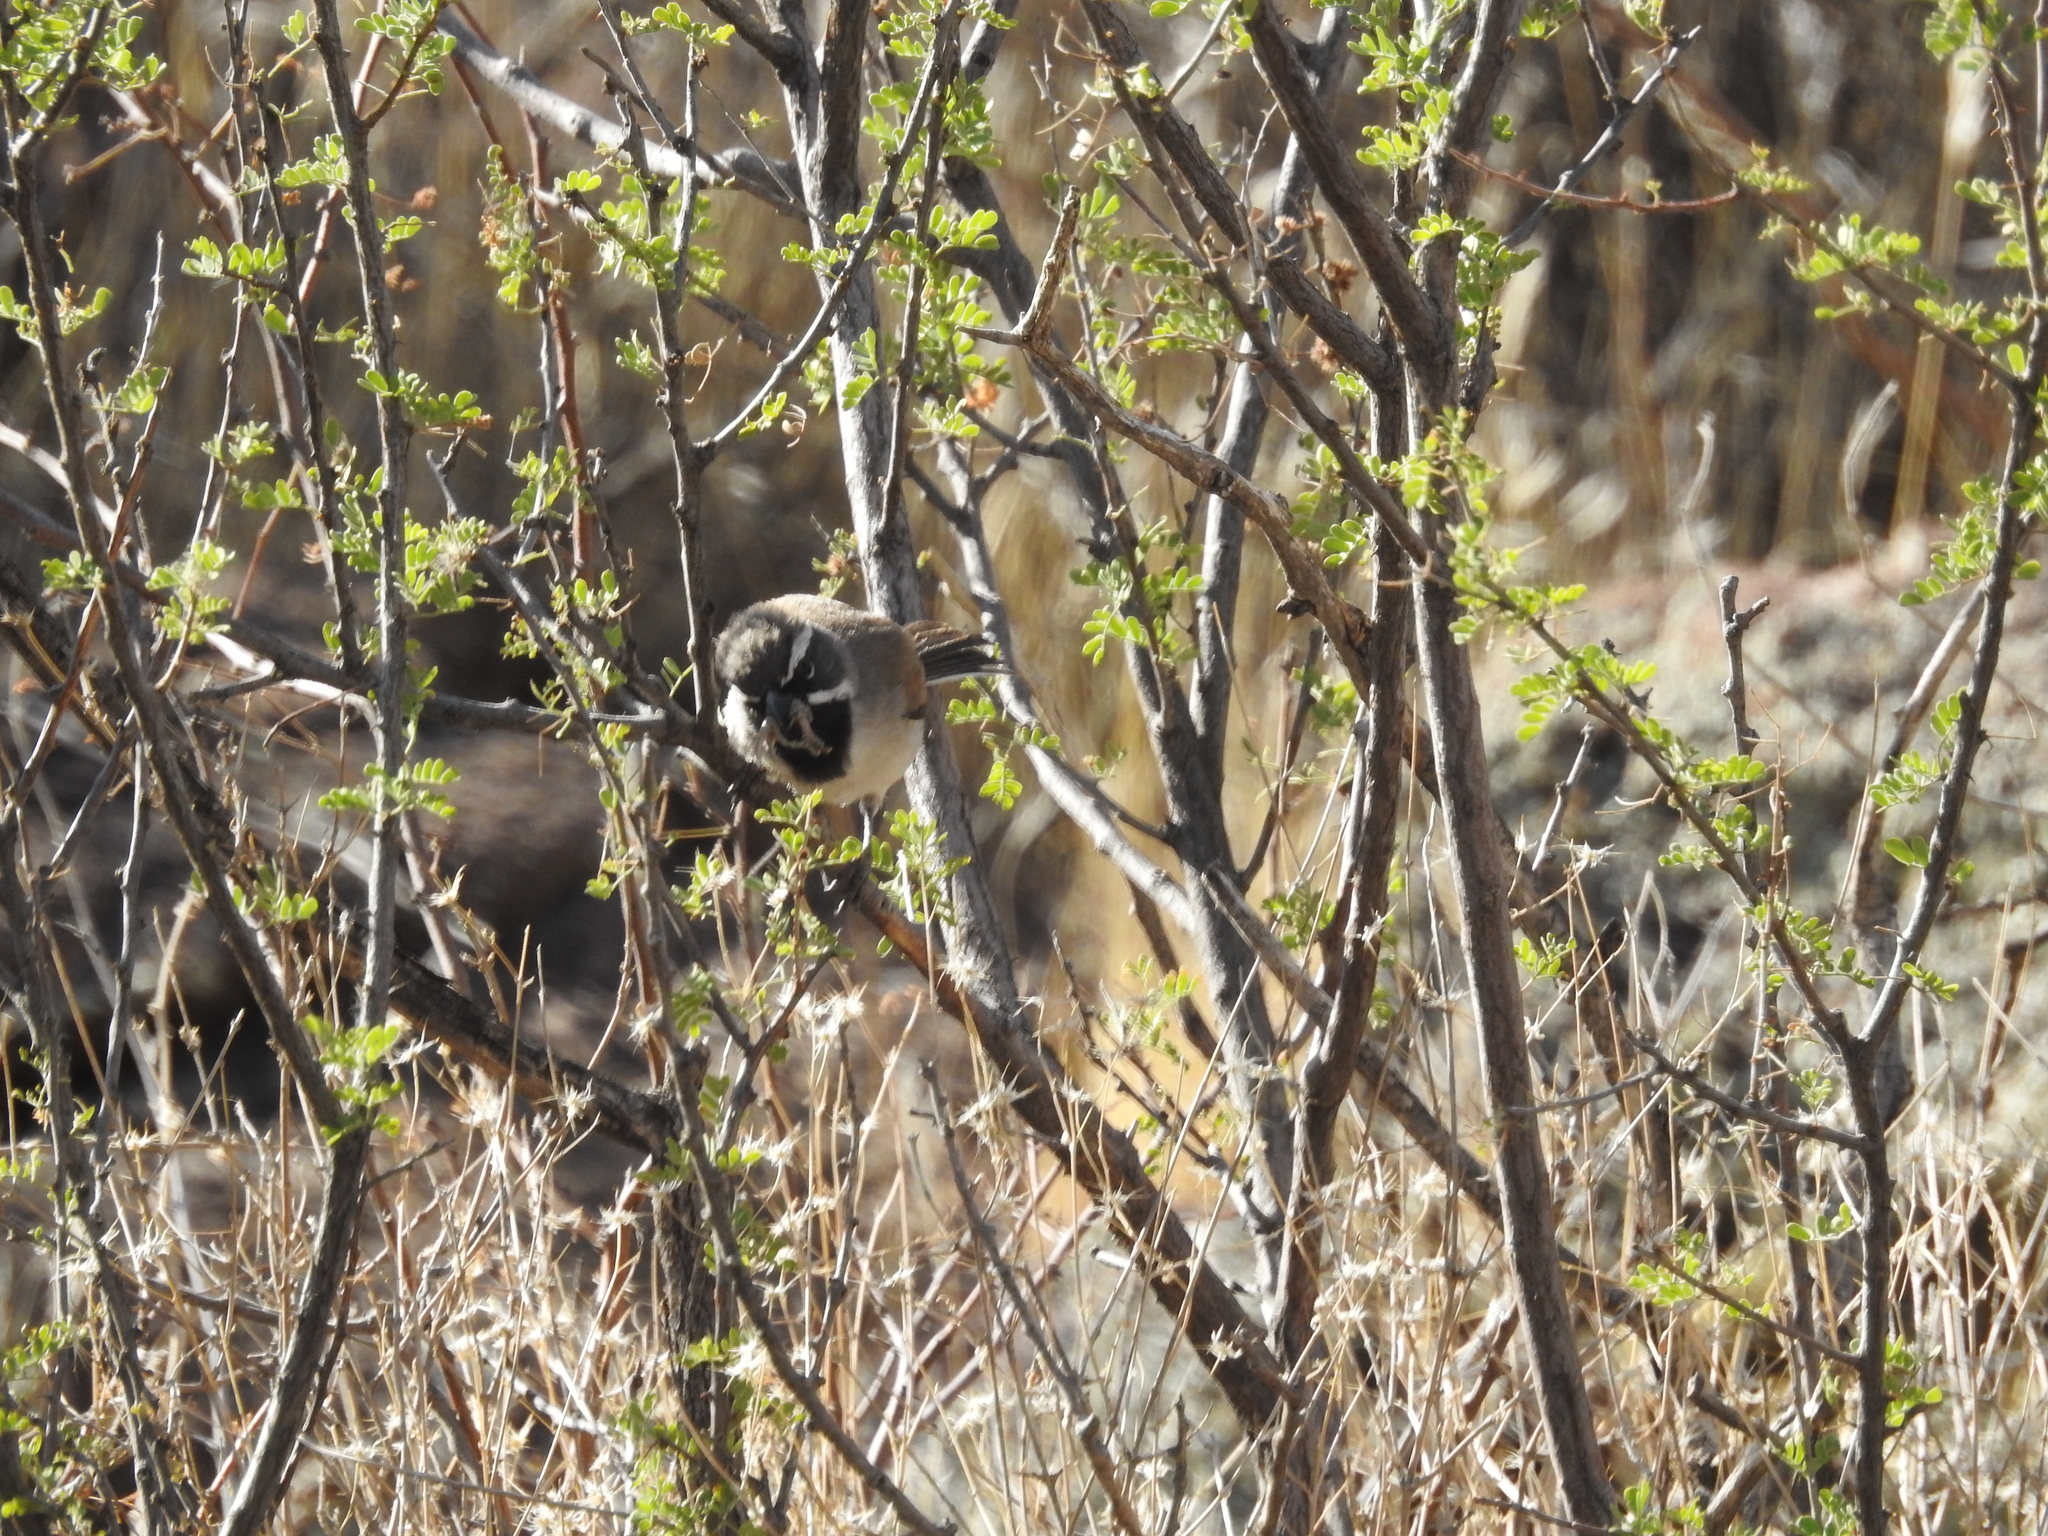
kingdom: Animalia
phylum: Chordata
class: Aves
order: Passeriformes
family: Passerellidae
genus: Amphispiza
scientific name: Amphispiza bilineata
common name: Black-throated sparrow
